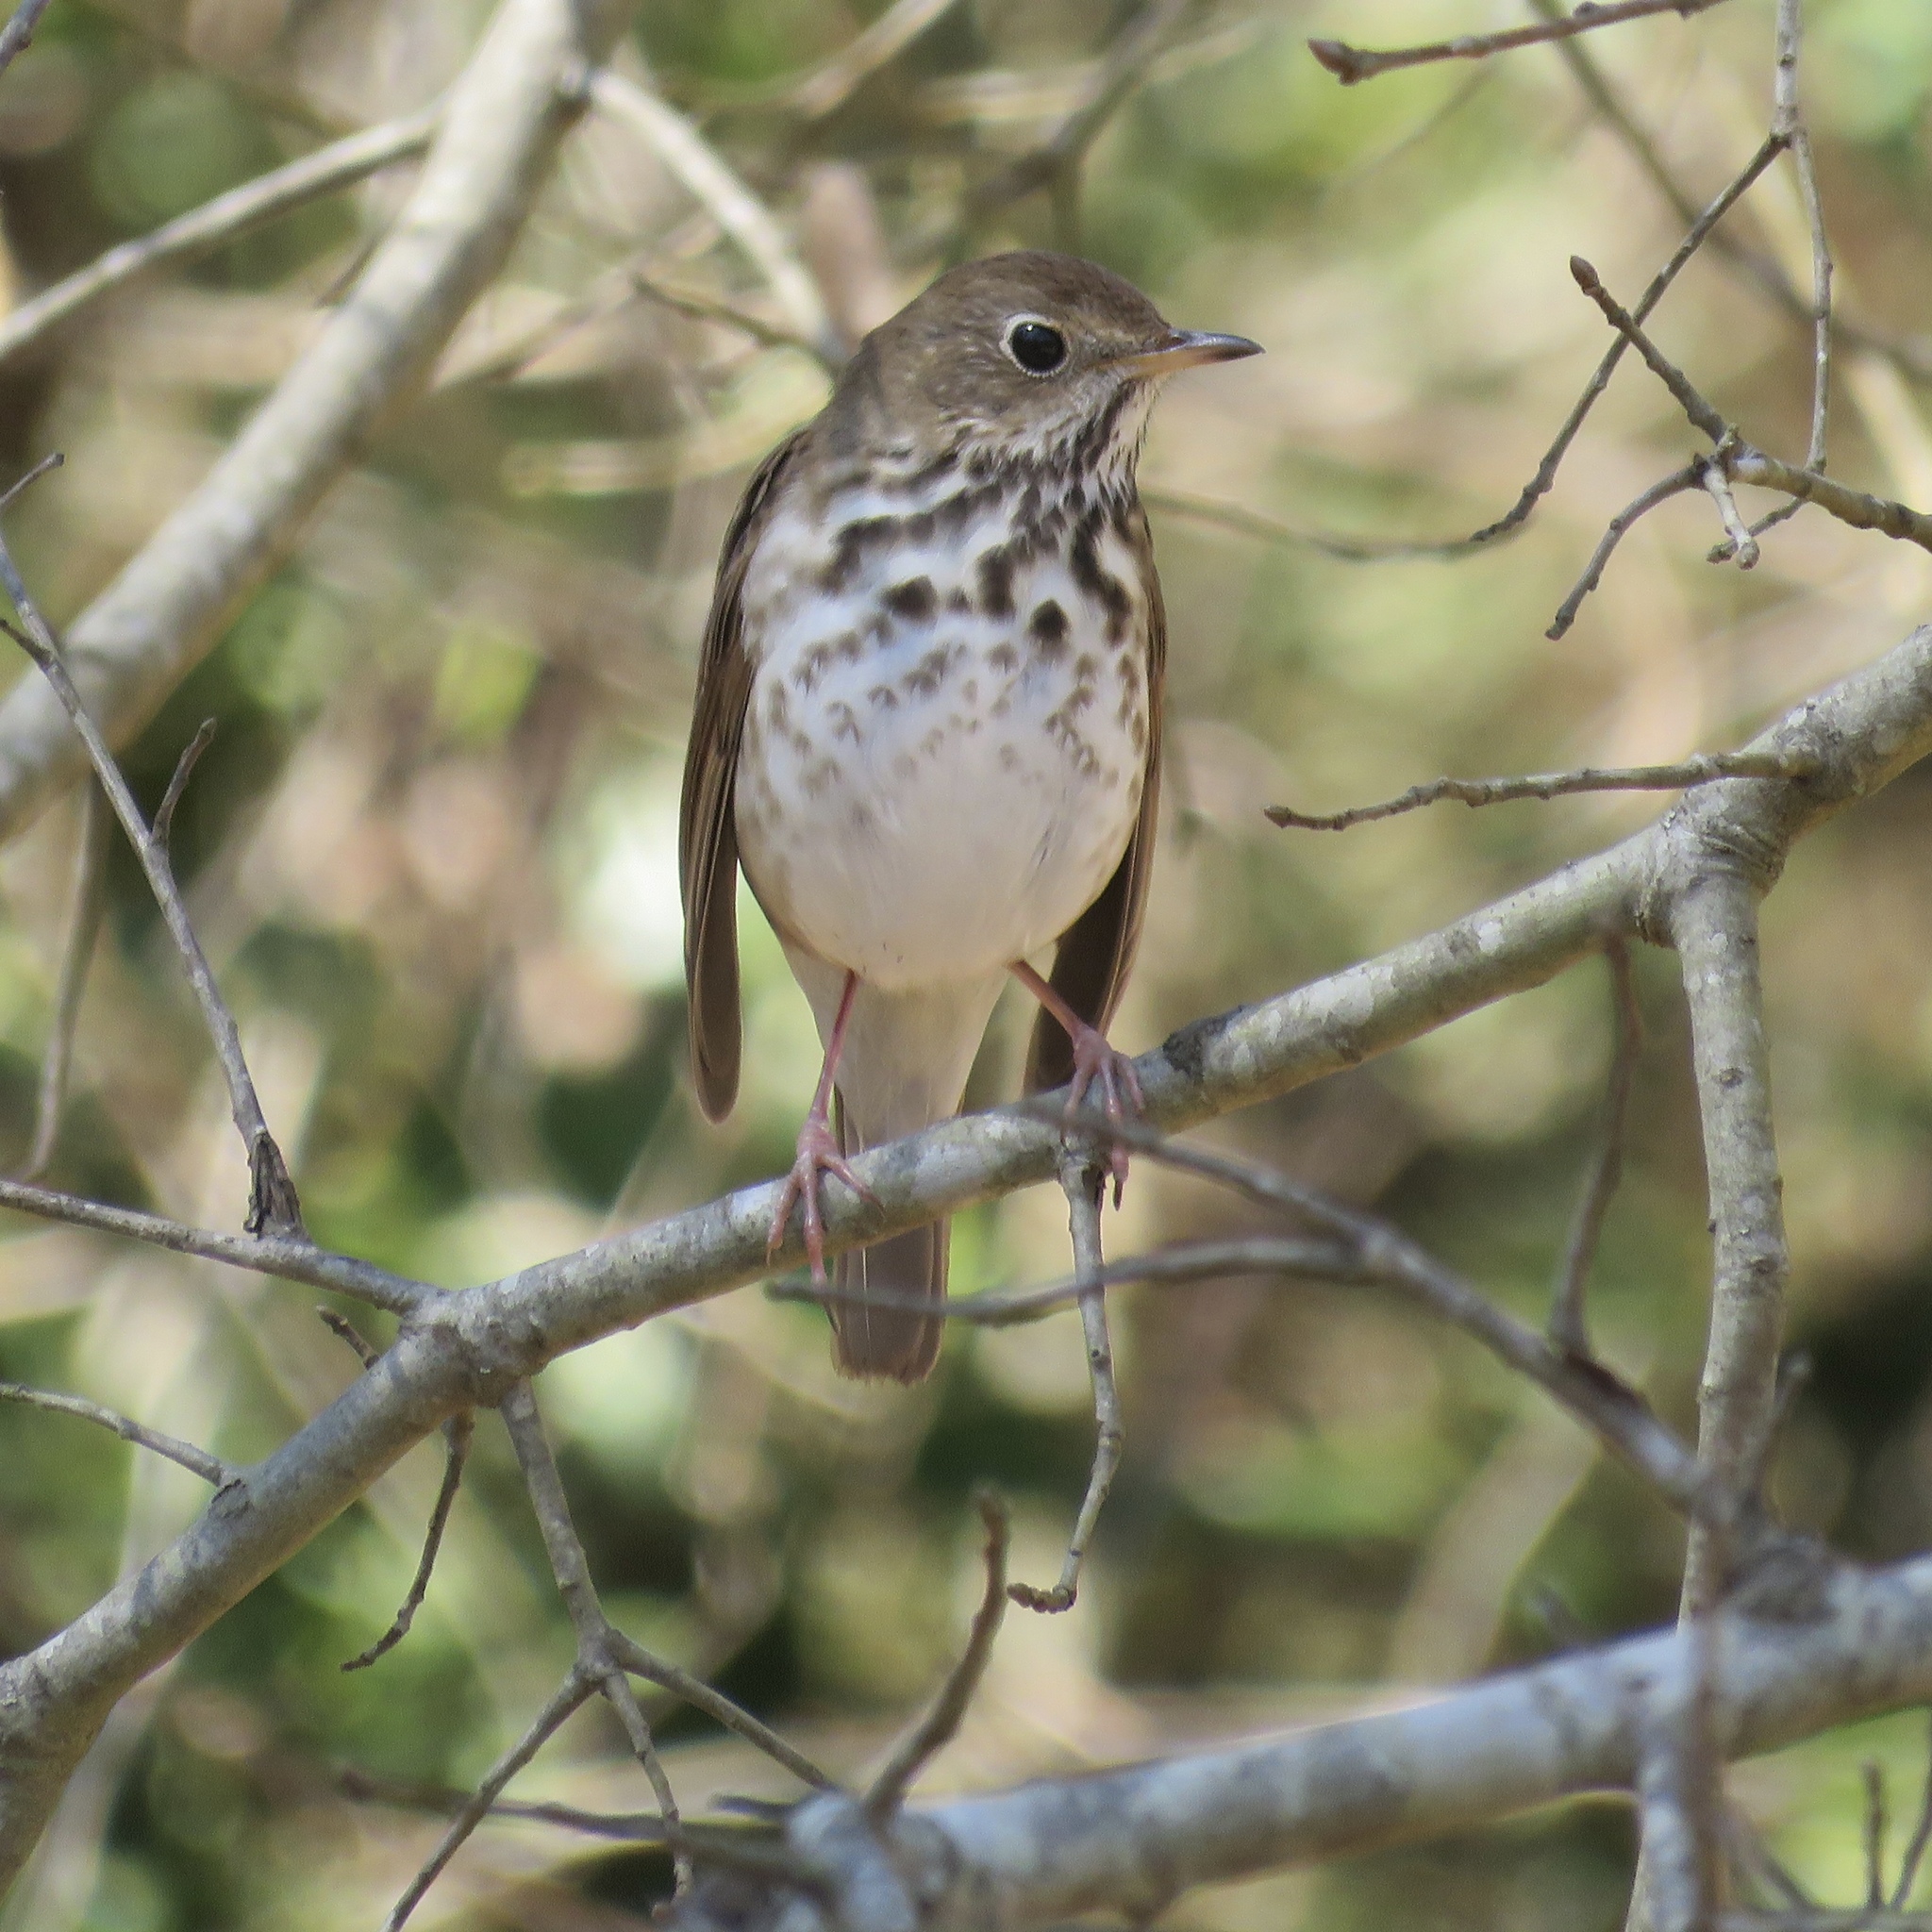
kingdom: Animalia
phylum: Chordata
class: Aves
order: Passeriformes
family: Turdidae
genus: Catharus
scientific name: Catharus guttatus
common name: Hermit thrush
